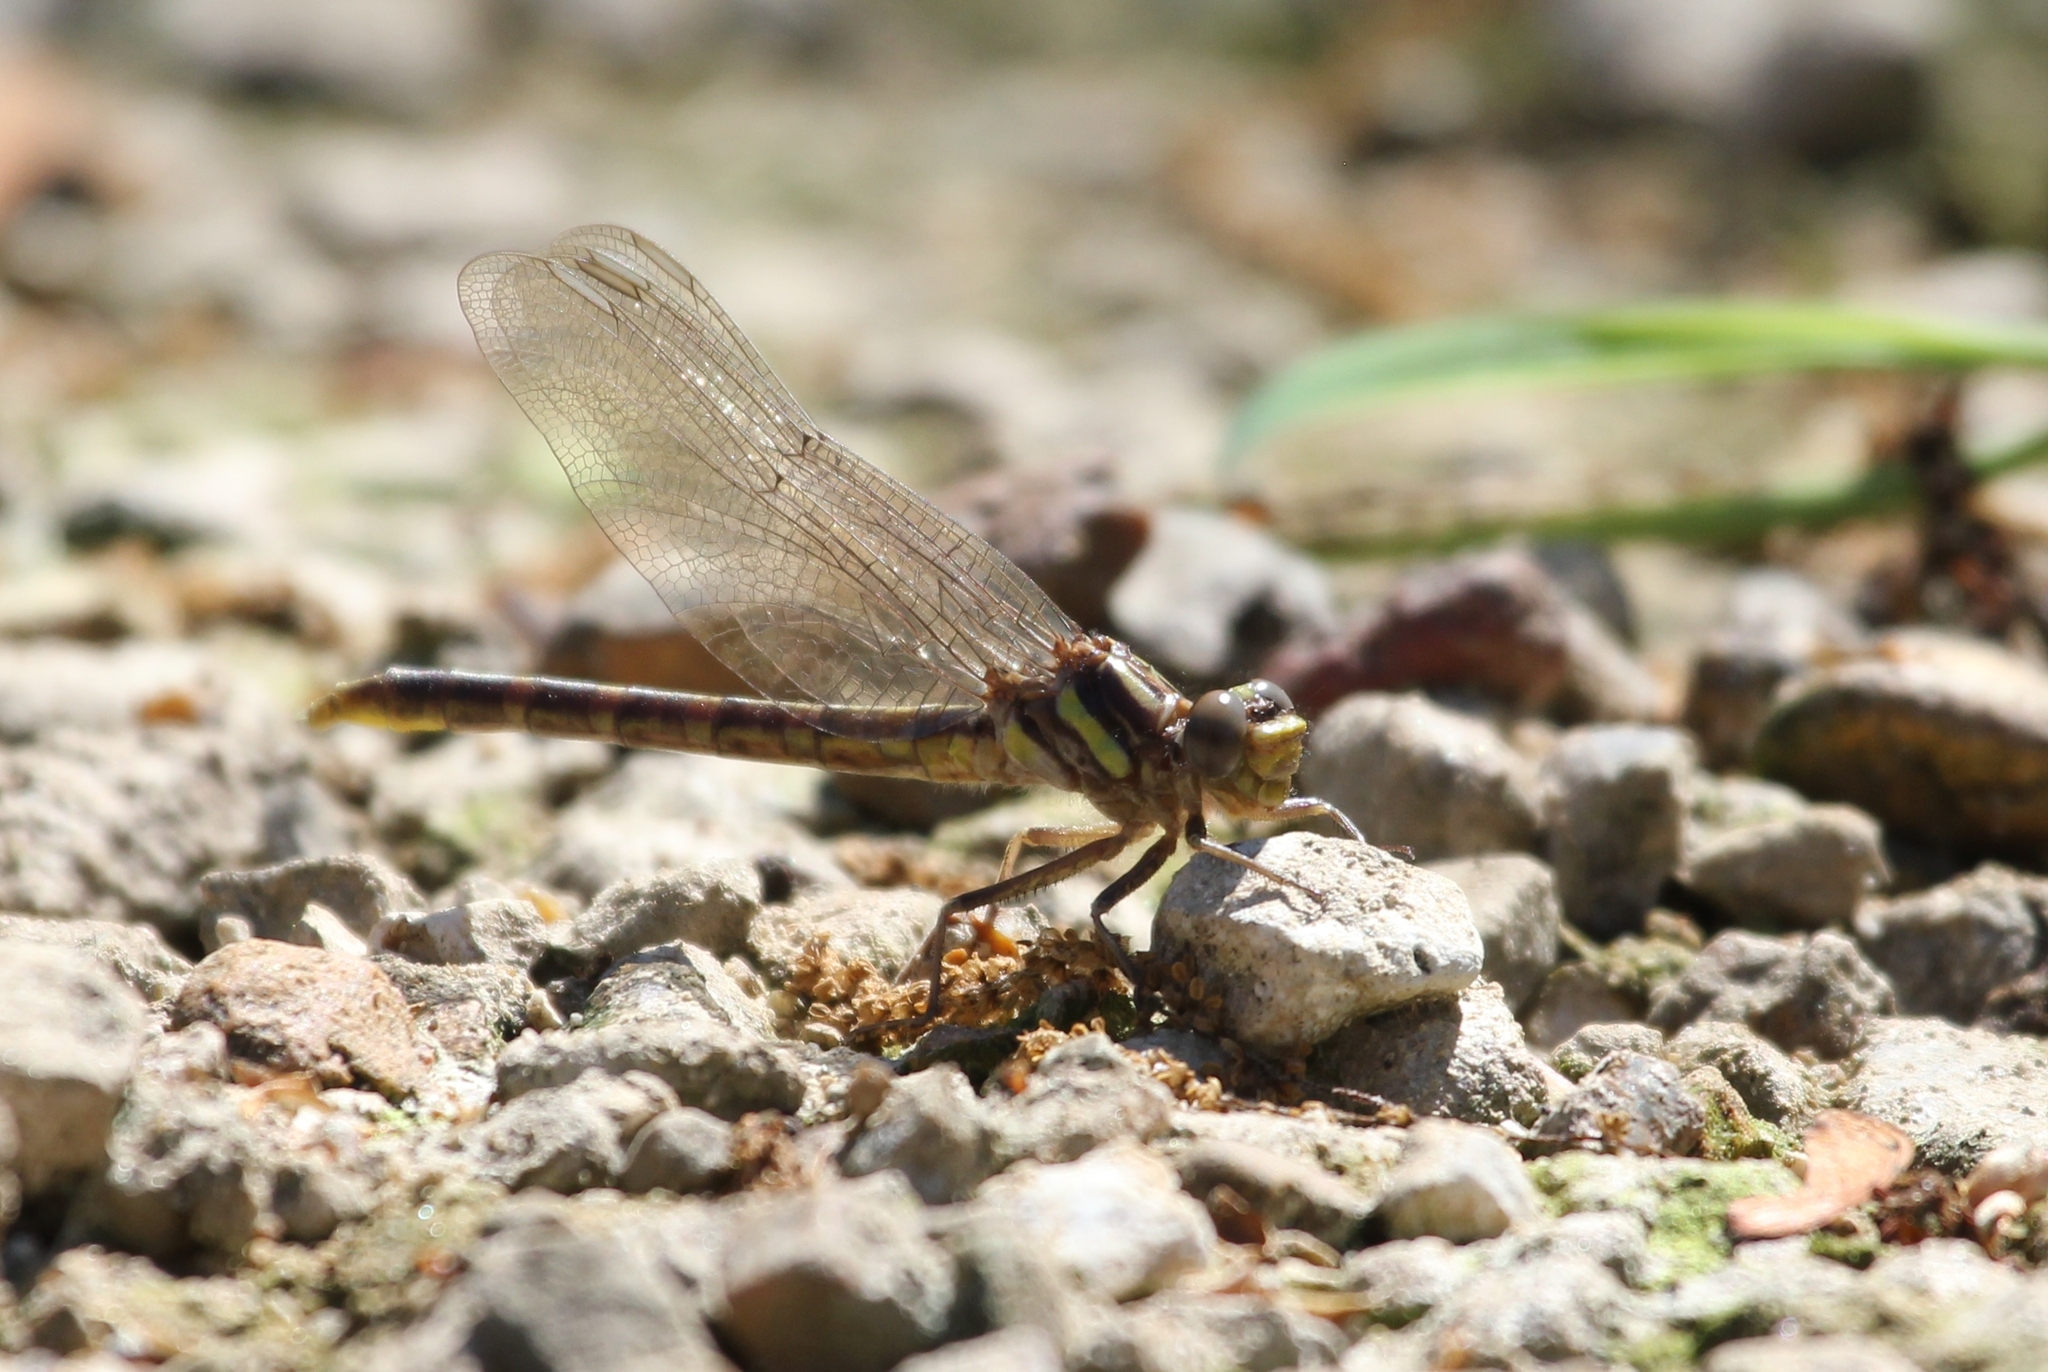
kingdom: Animalia
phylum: Arthropoda
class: Insecta
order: Odonata
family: Gomphidae
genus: Phanogomphus
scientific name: Phanogomphus lividus
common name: Ashy clubtail
